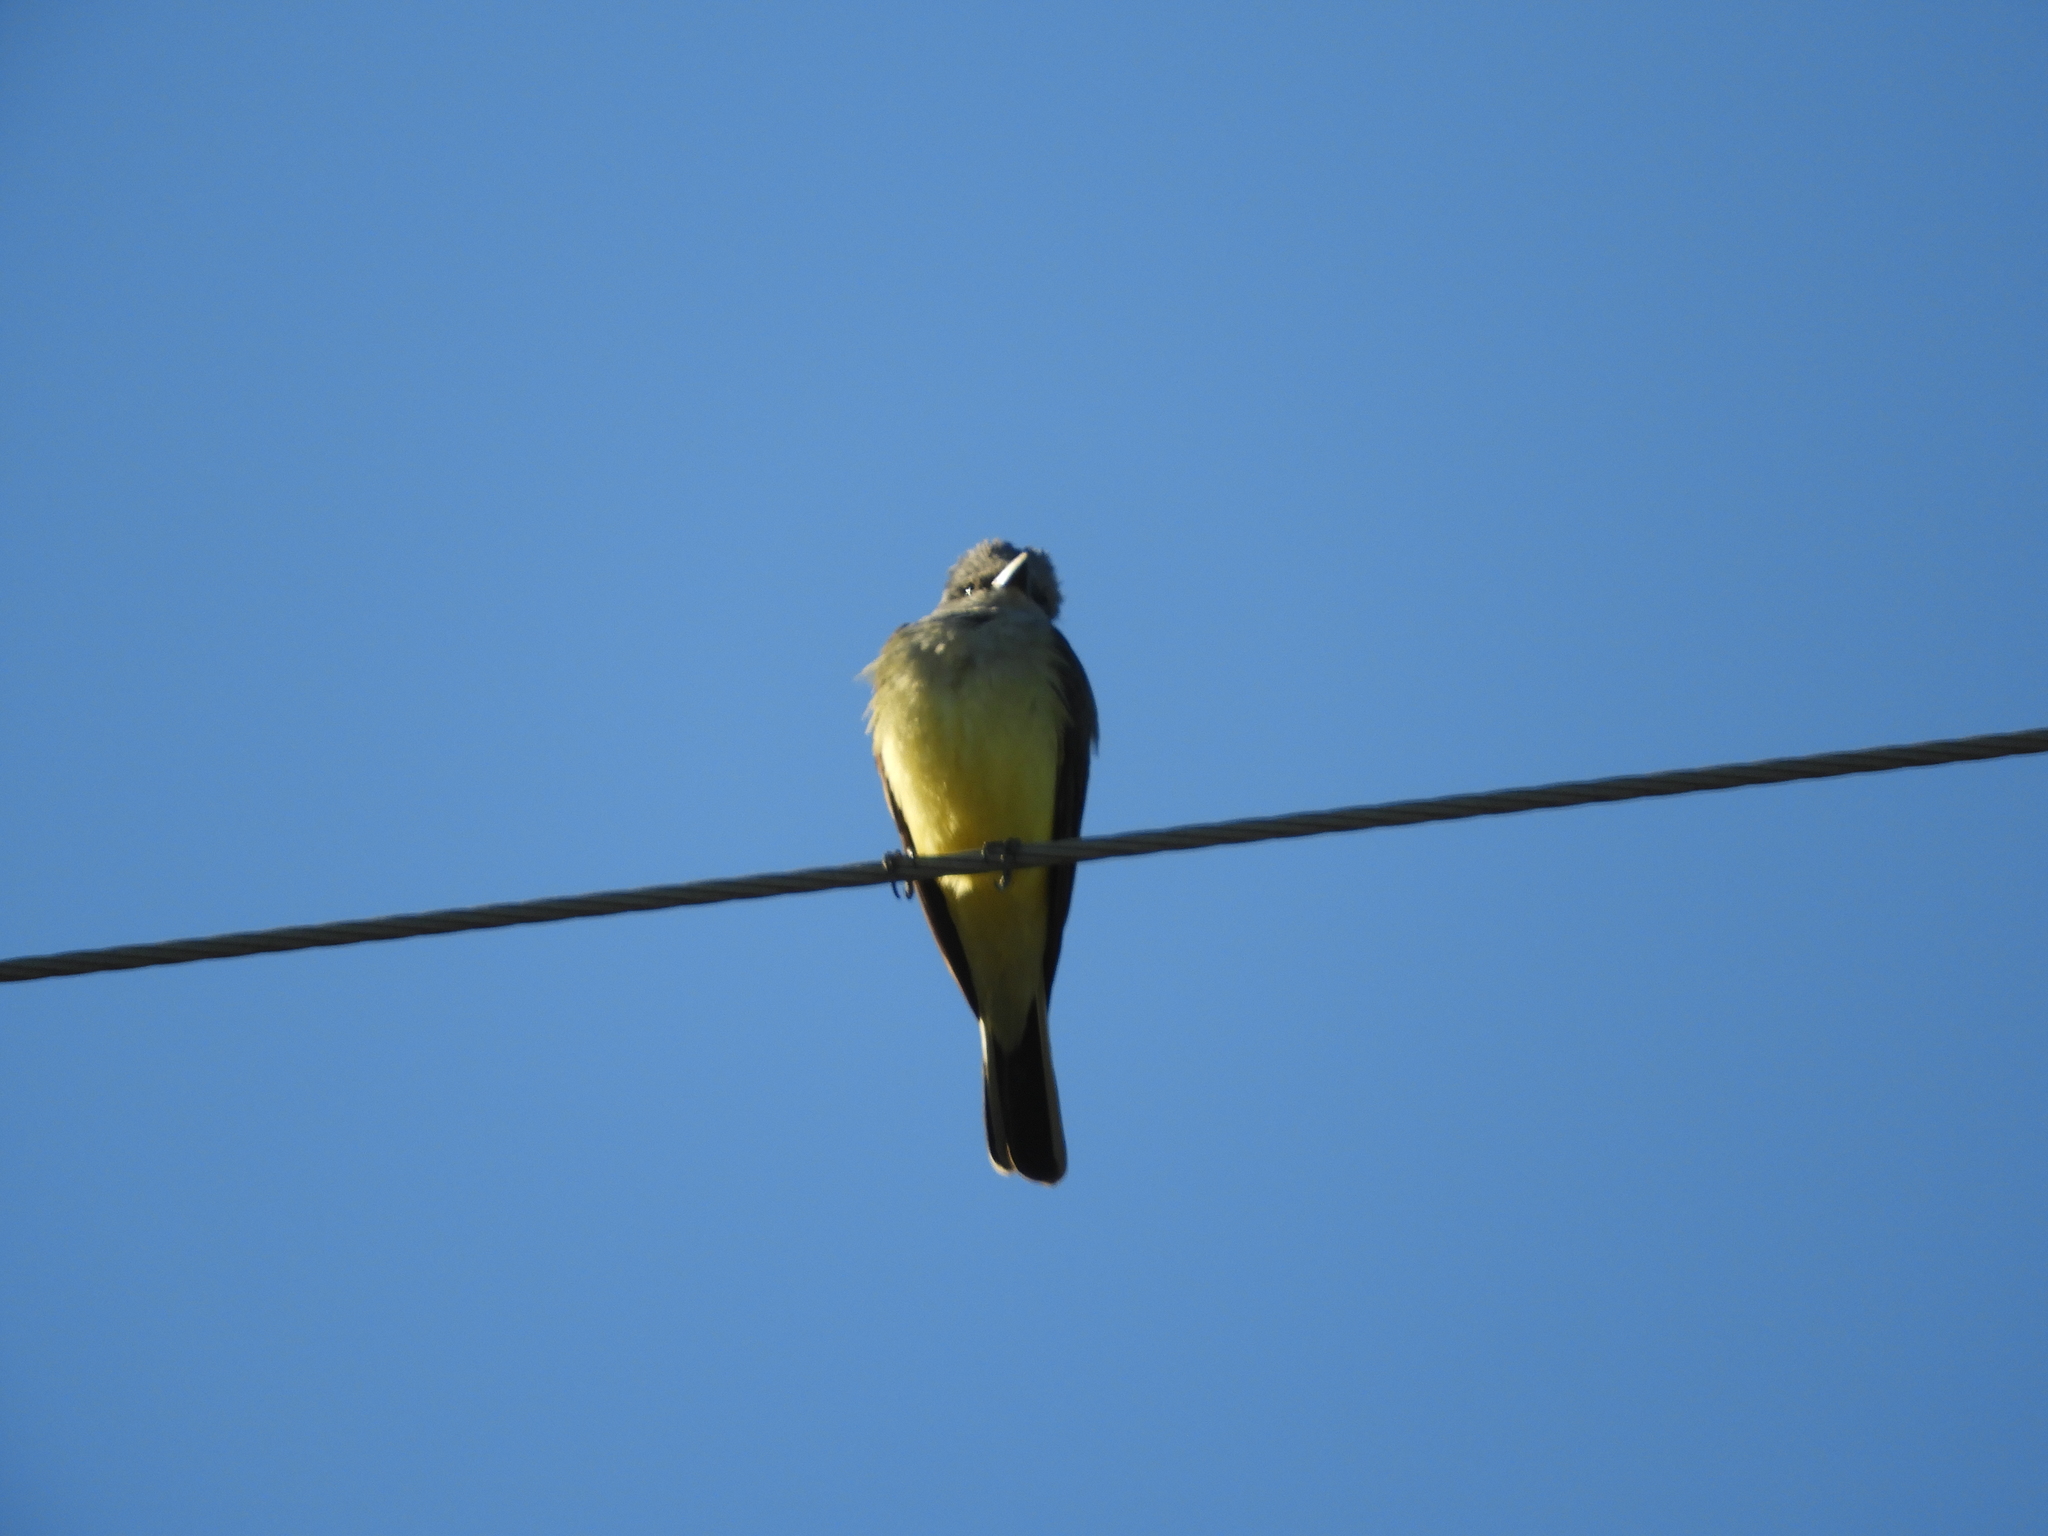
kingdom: Animalia
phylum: Chordata
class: Aves
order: Passeriformes
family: Tyrannidae
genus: Tyrannus
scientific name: Tyrannus verticalis
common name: Western kingbird
